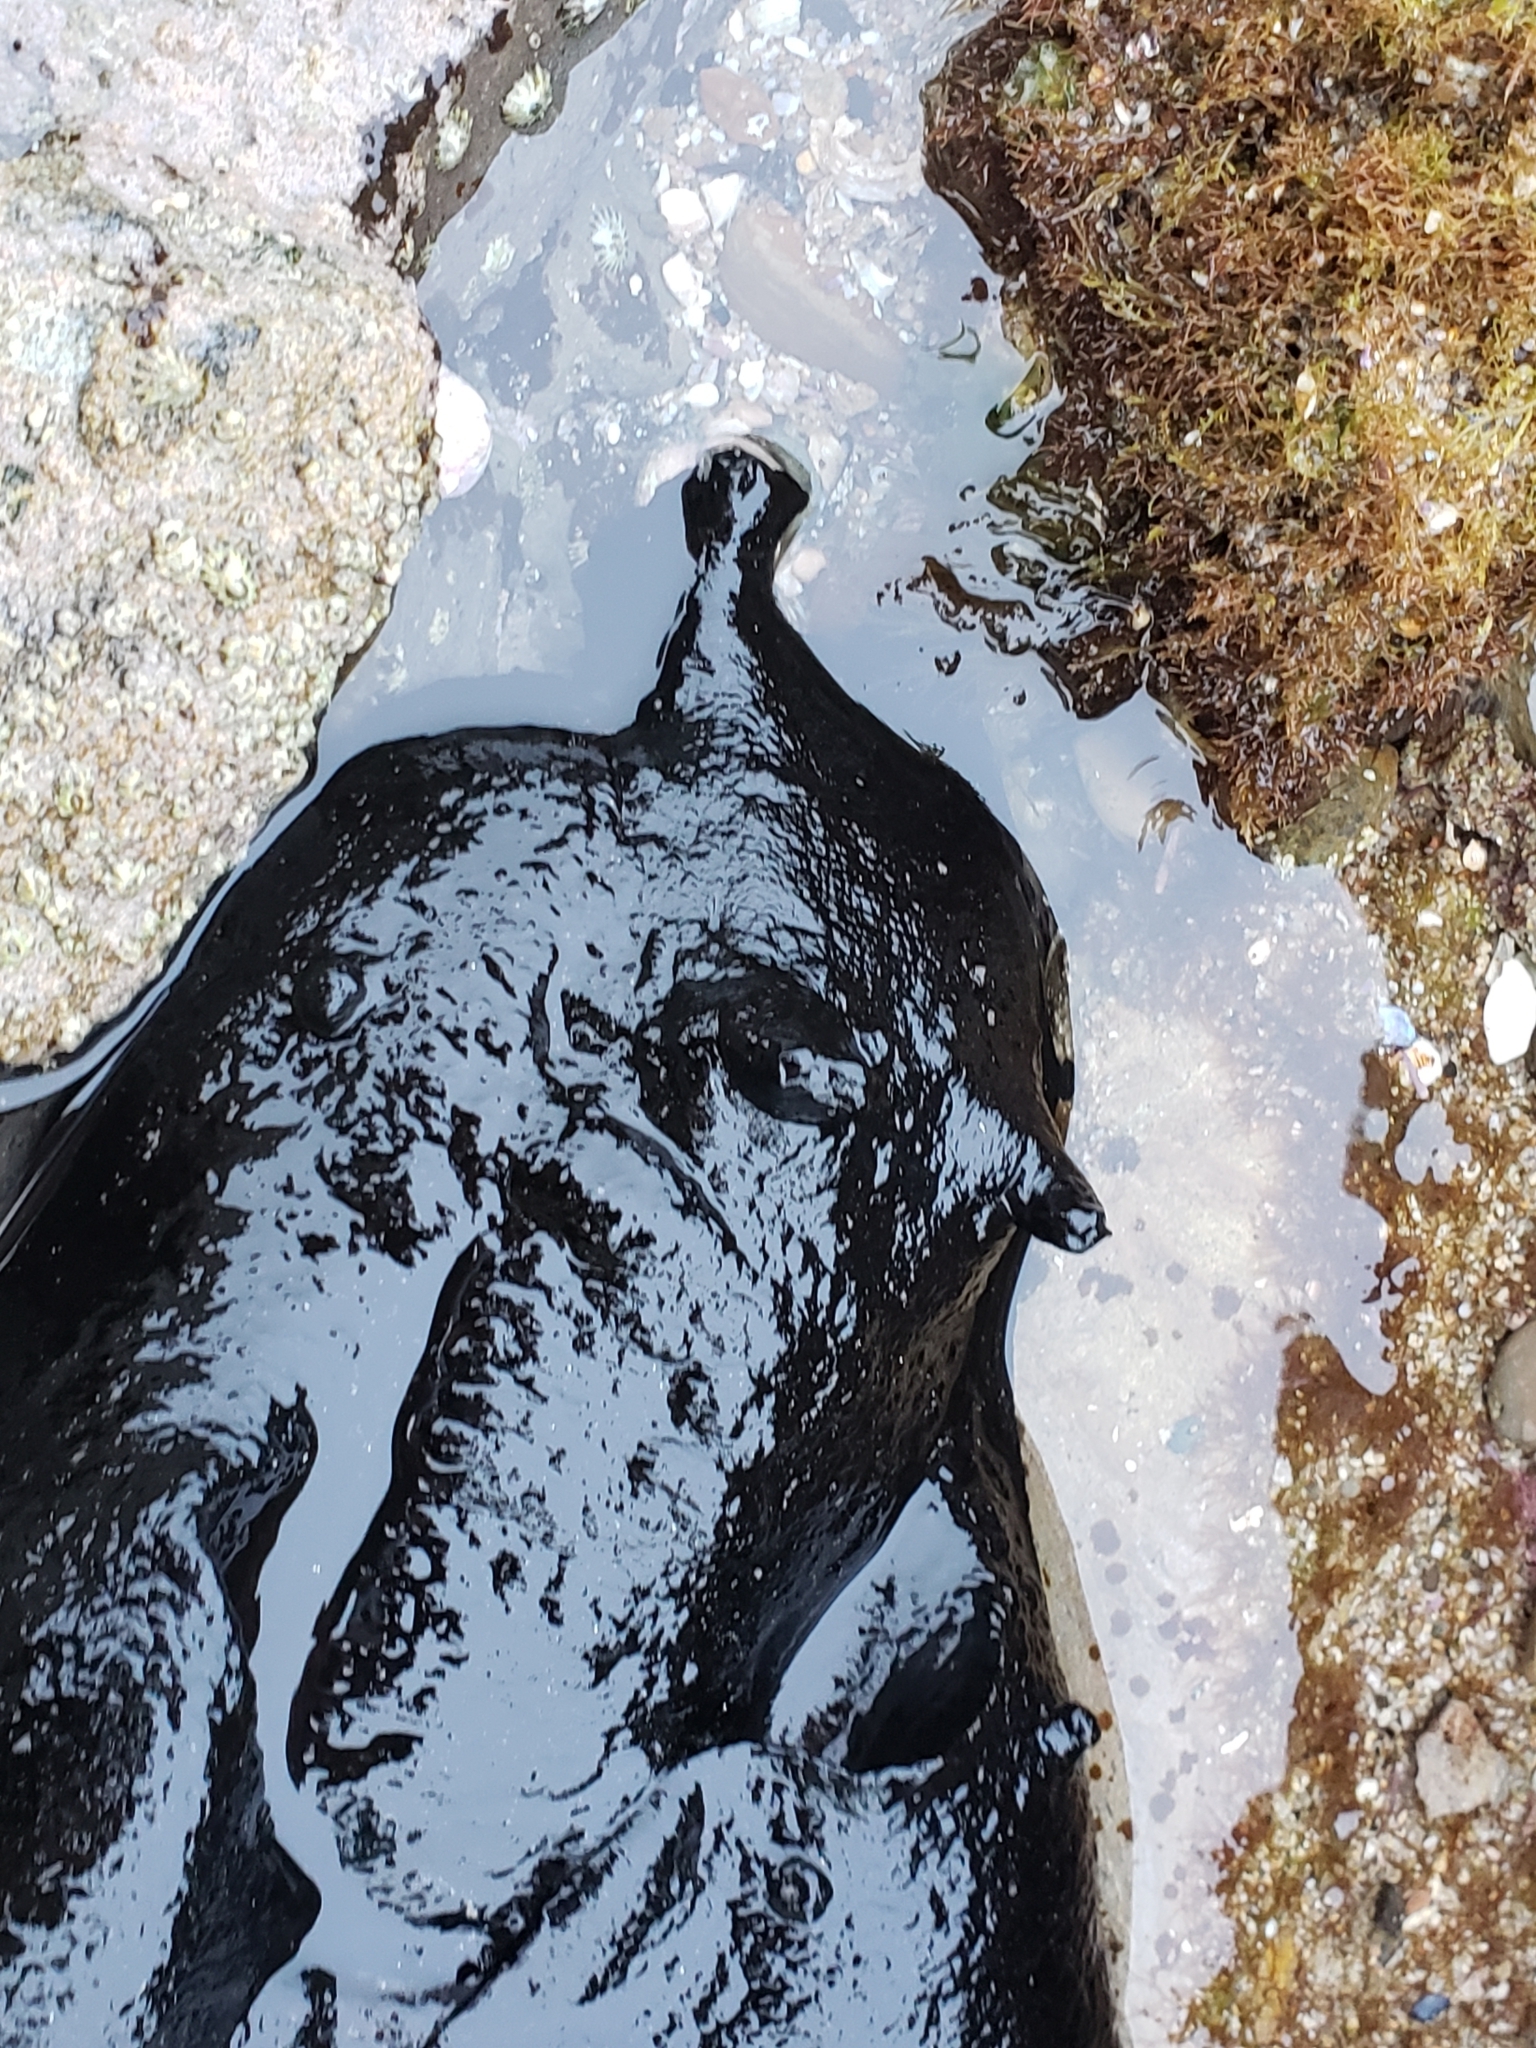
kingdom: Animalia
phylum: Mollusca
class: Gastropoda
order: Aplysiida
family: Aplysiidae
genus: Aplysia
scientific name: Aplysia vaccaria
